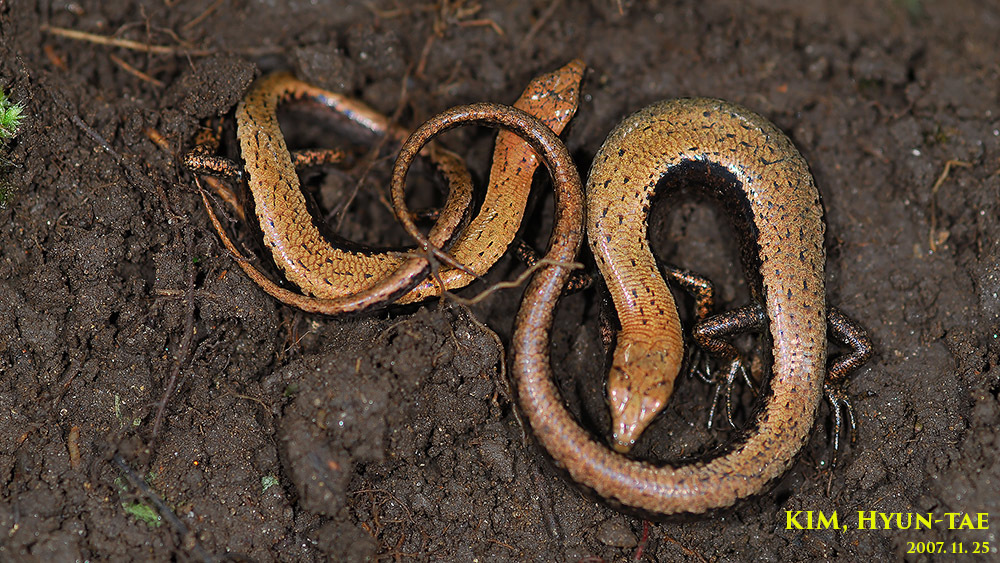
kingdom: Animalia
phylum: Chordata
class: Squamata
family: Scincidae
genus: Scincella
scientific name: Scincella vandenburghi
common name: Tsushima smooth skink
